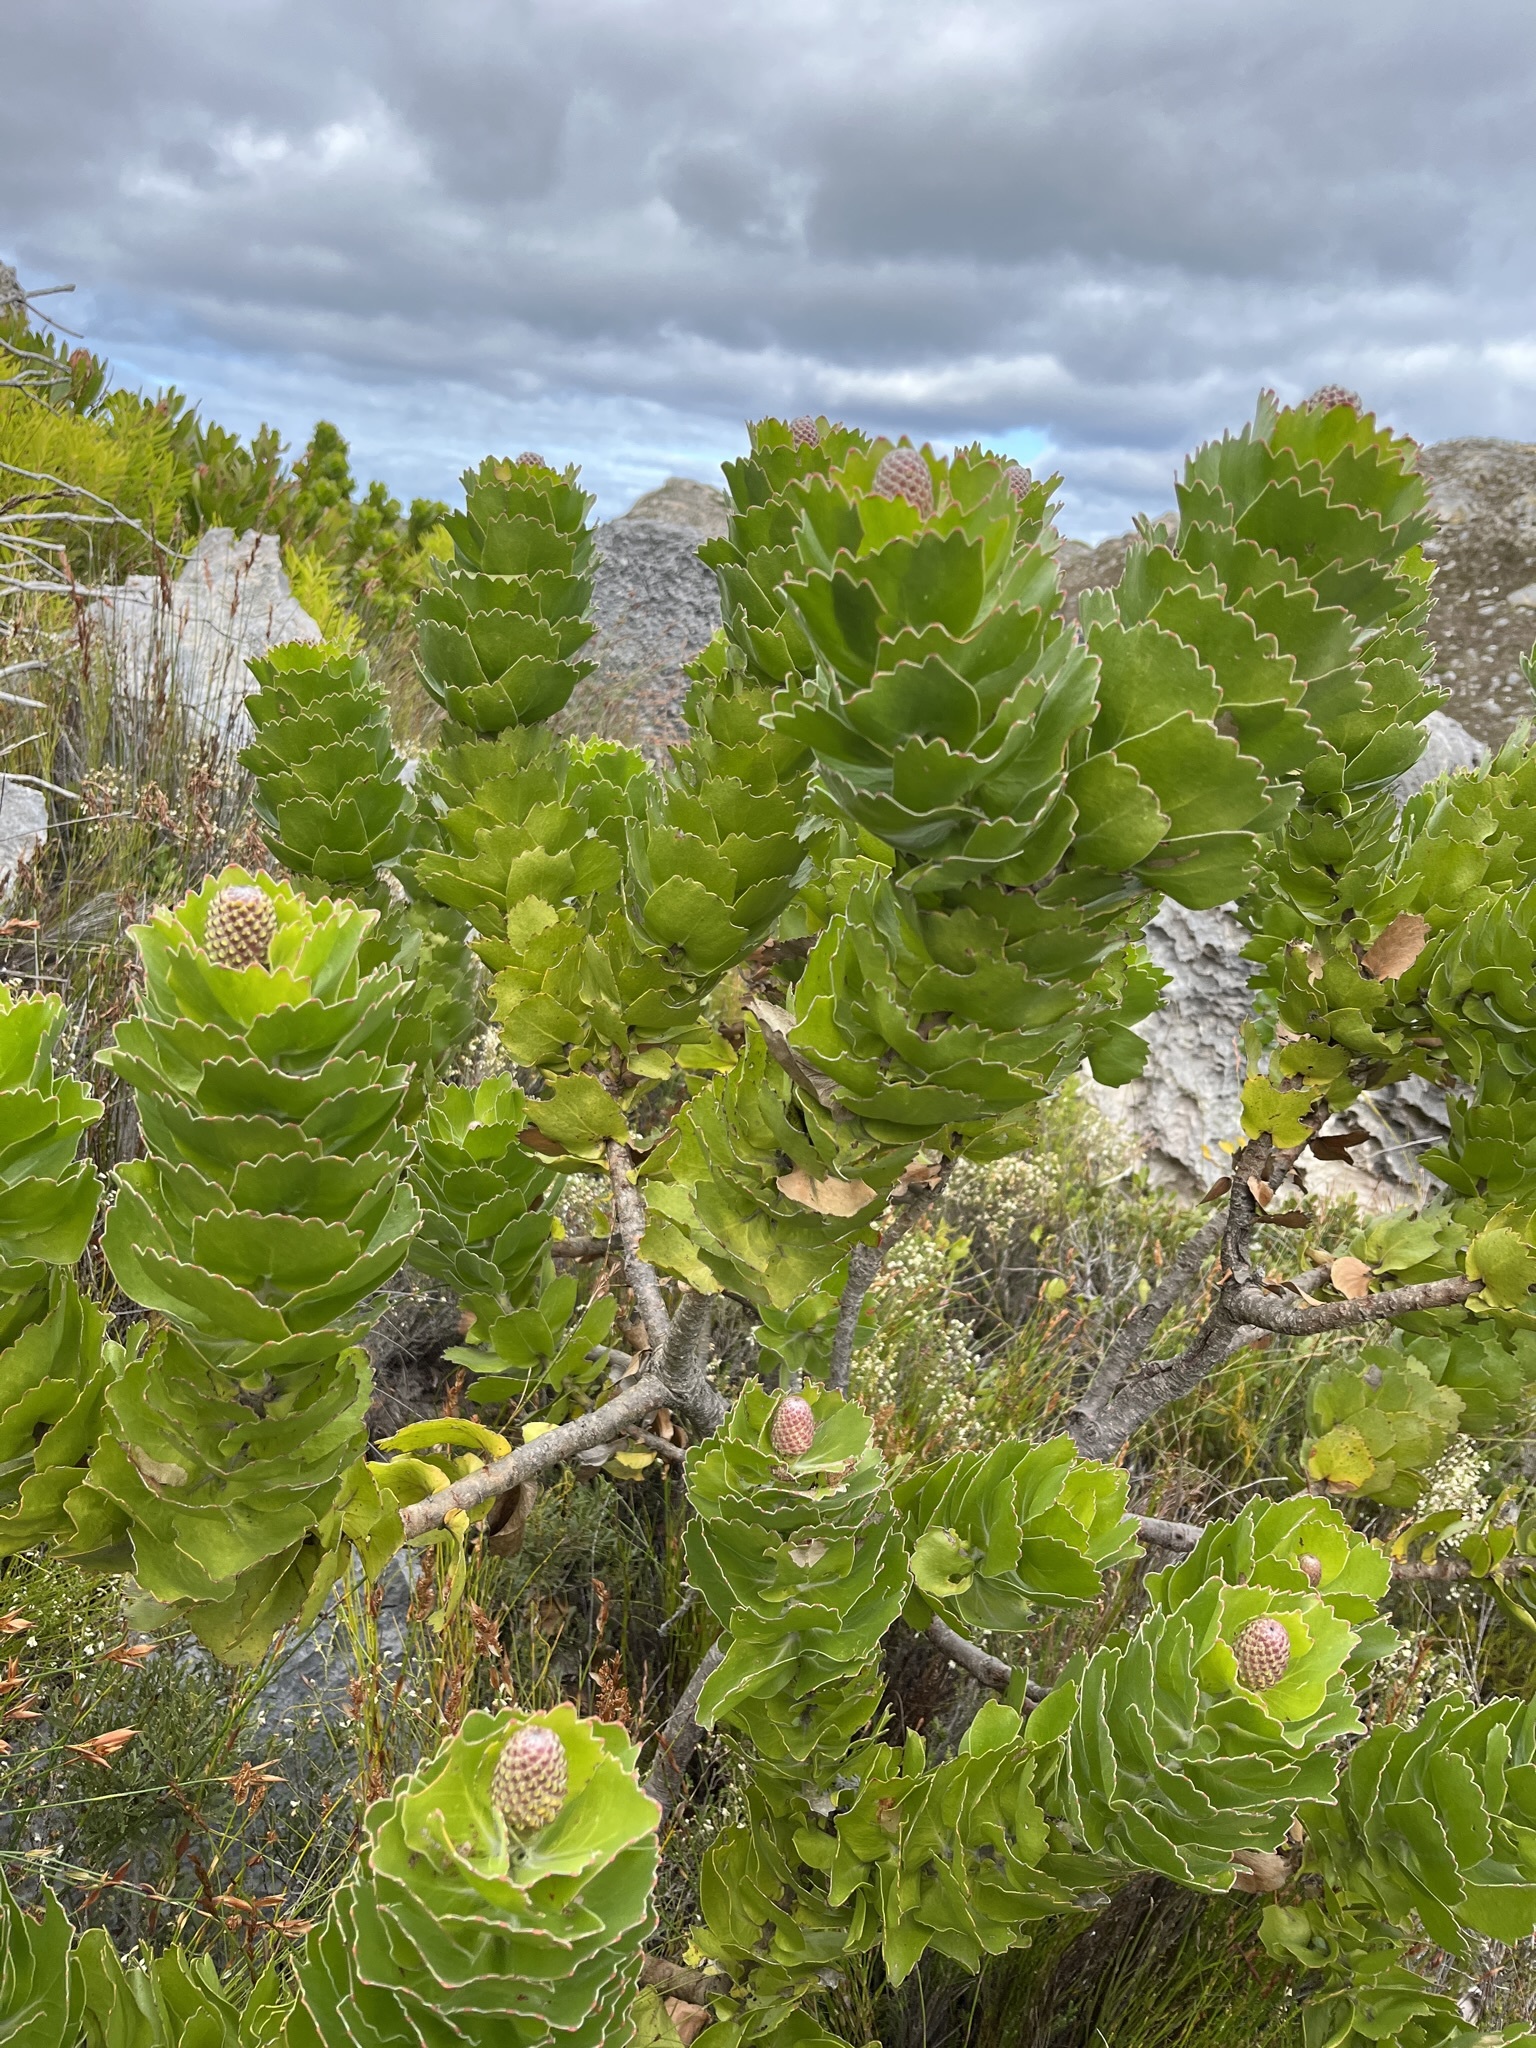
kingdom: Plantae
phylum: Tracheophyta
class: Magnoliopsida
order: Proteales
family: Proteaceae
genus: Leucospermum
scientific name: Leucospermum patersonii
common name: False tree pincushion
